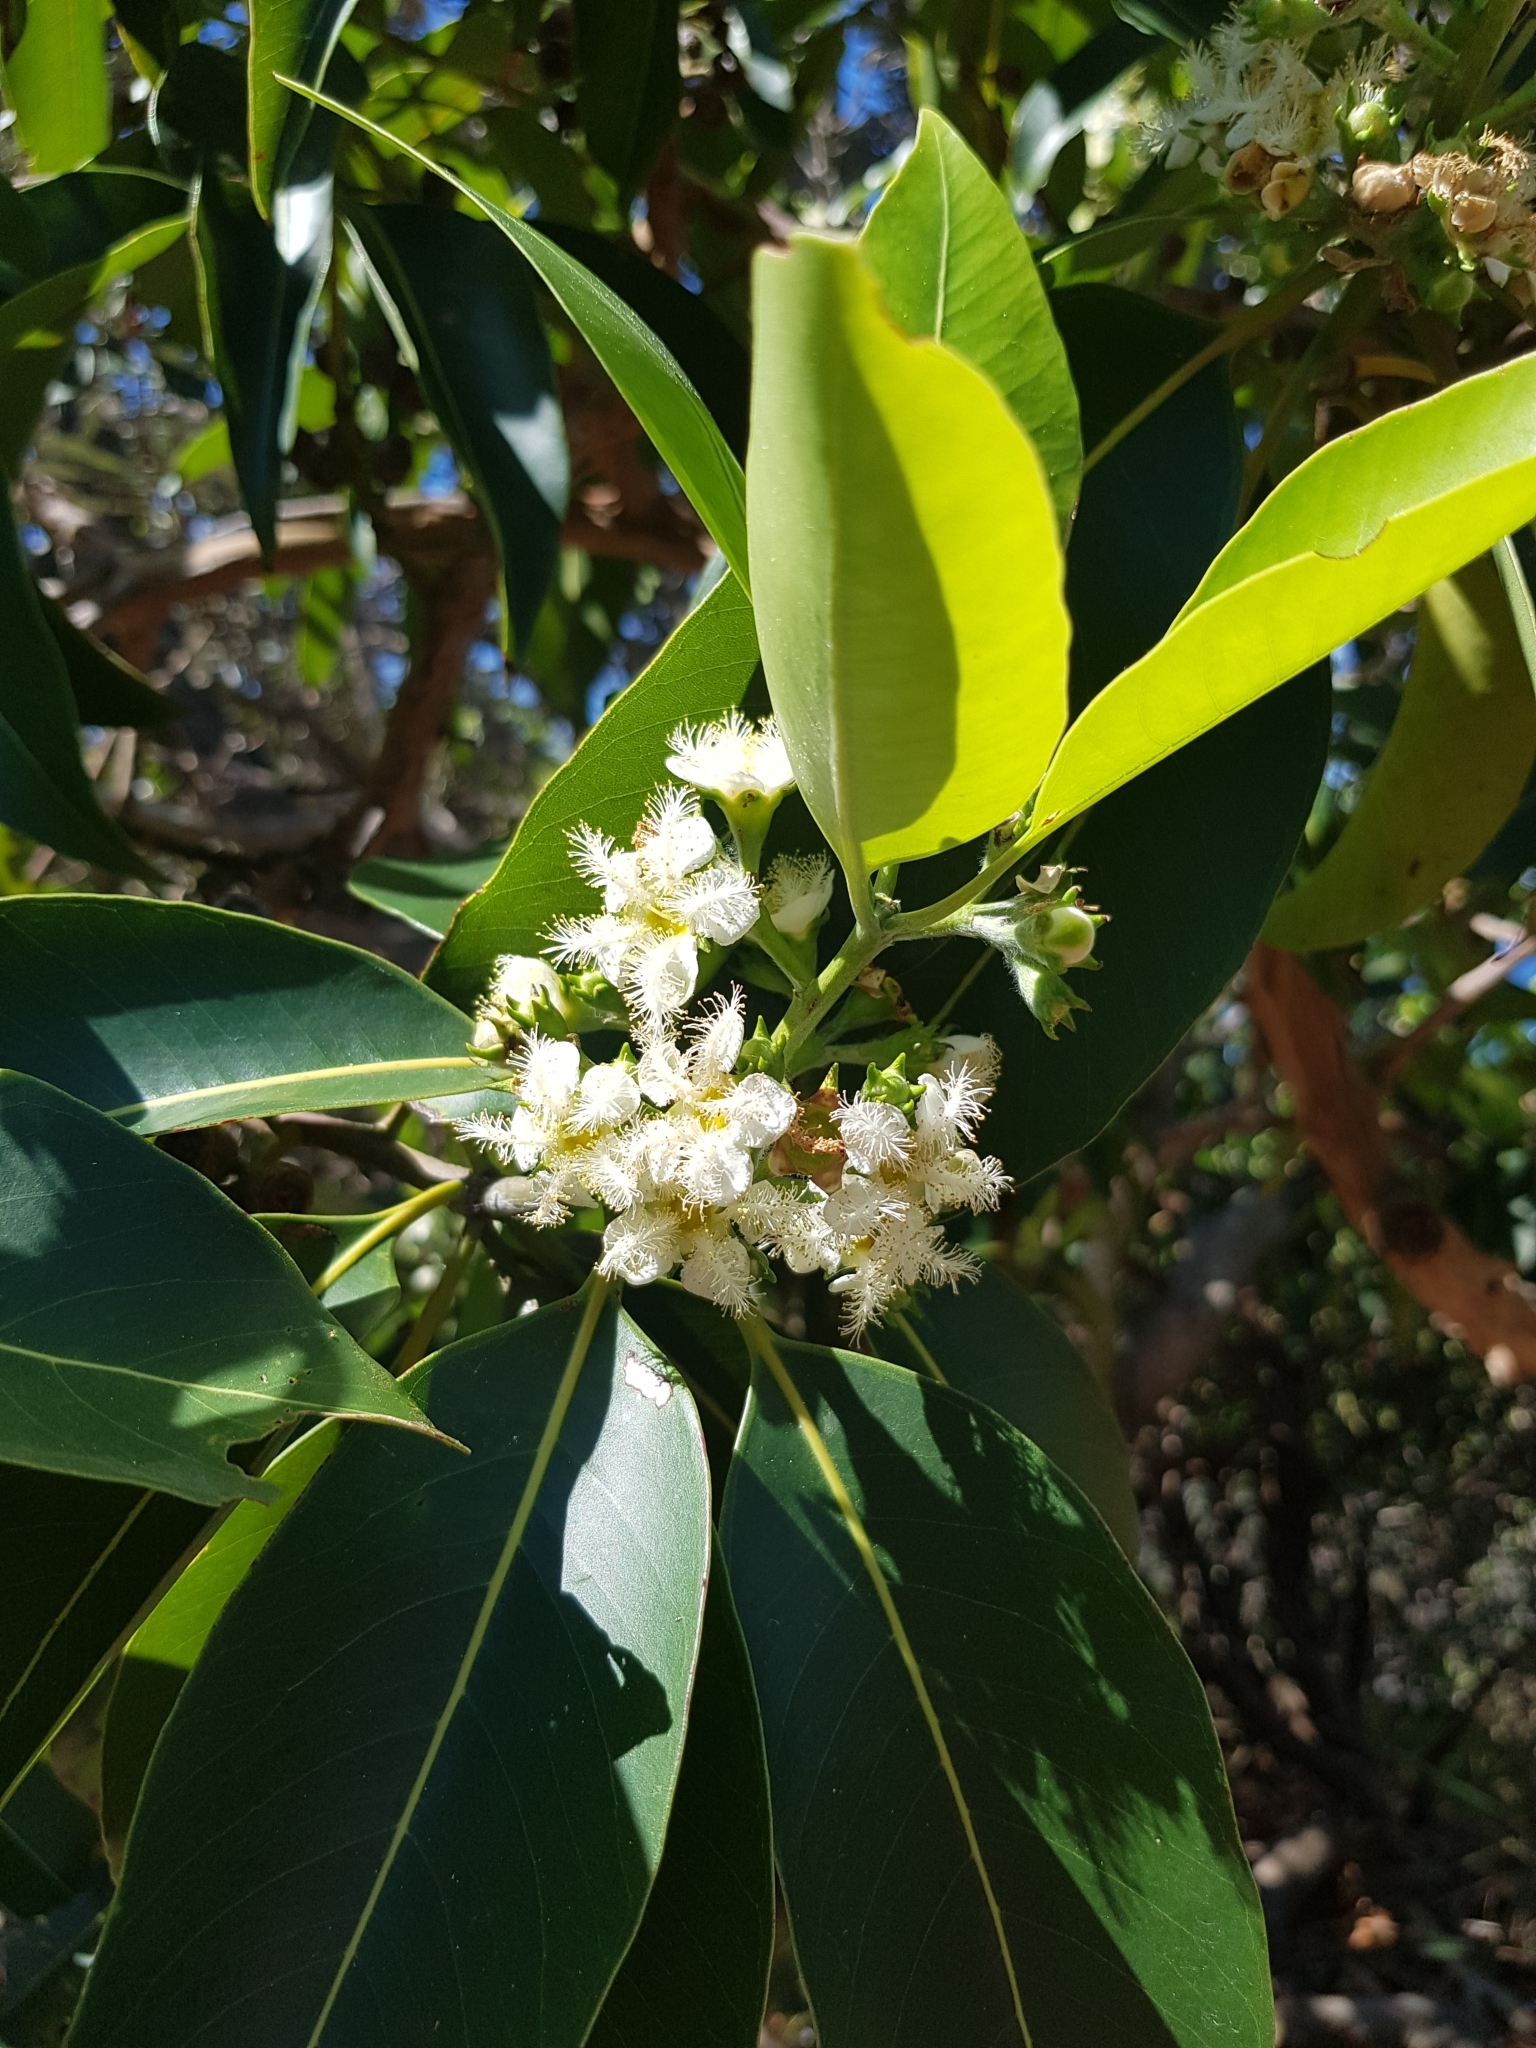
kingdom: Plantae
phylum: Tracheophyta
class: Magnoliopsida
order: Myrtales
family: Myrtaceae
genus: Lophostemon
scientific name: Lophostemon confertus
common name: Brisbane box
